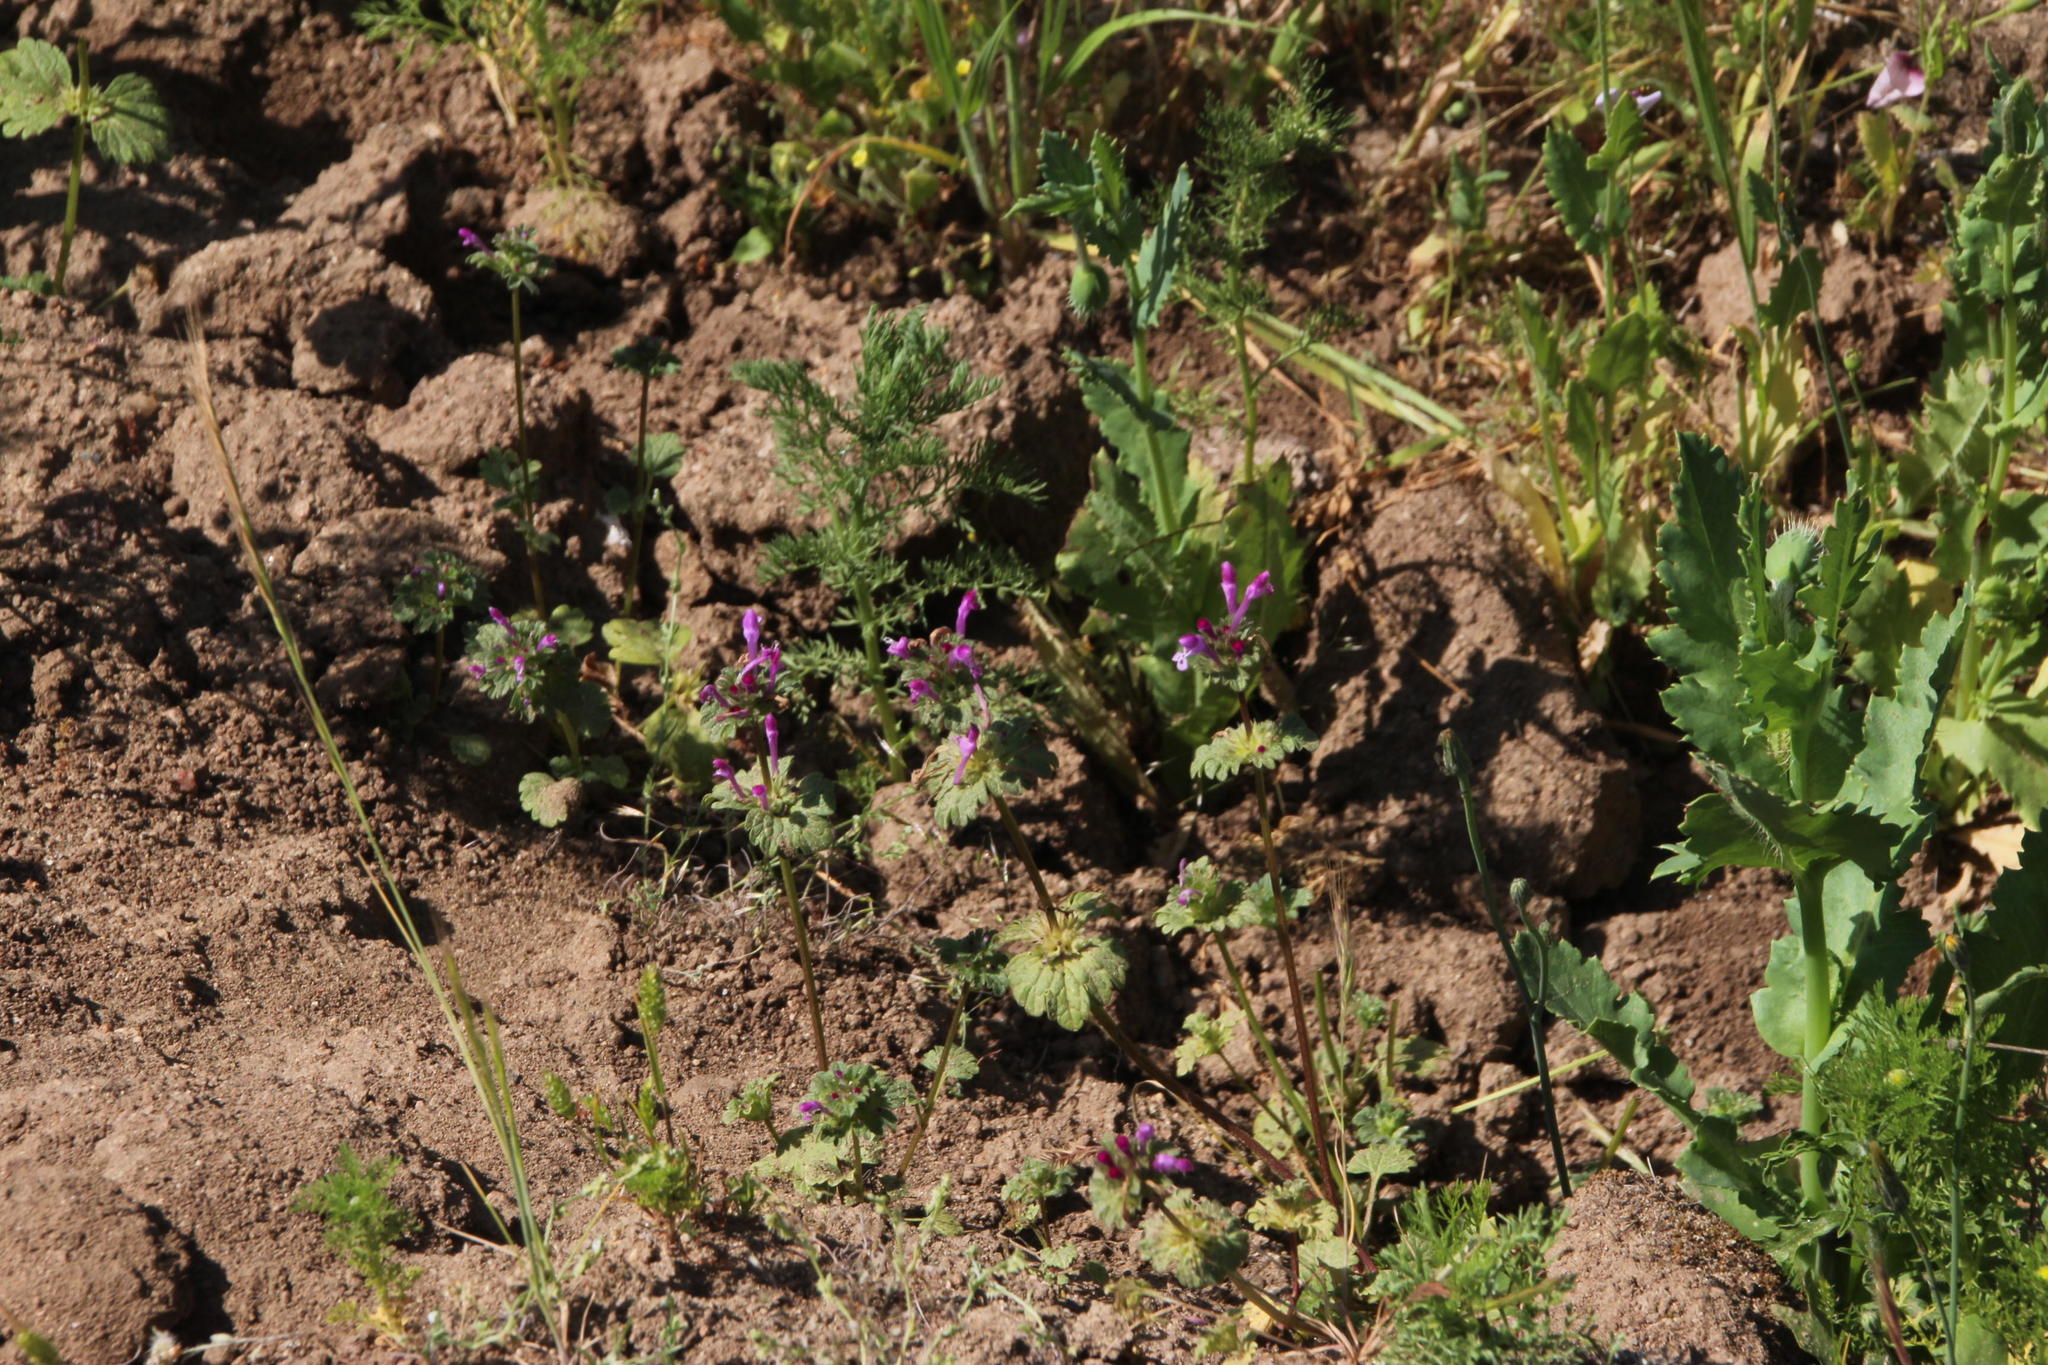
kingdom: Plantae
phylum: Tracheophyta
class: Magnoliopsida
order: Lamiales
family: Lamiaceae
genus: Lamium
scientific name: Lamium amplexicaule
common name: Henbit dead-nettle
